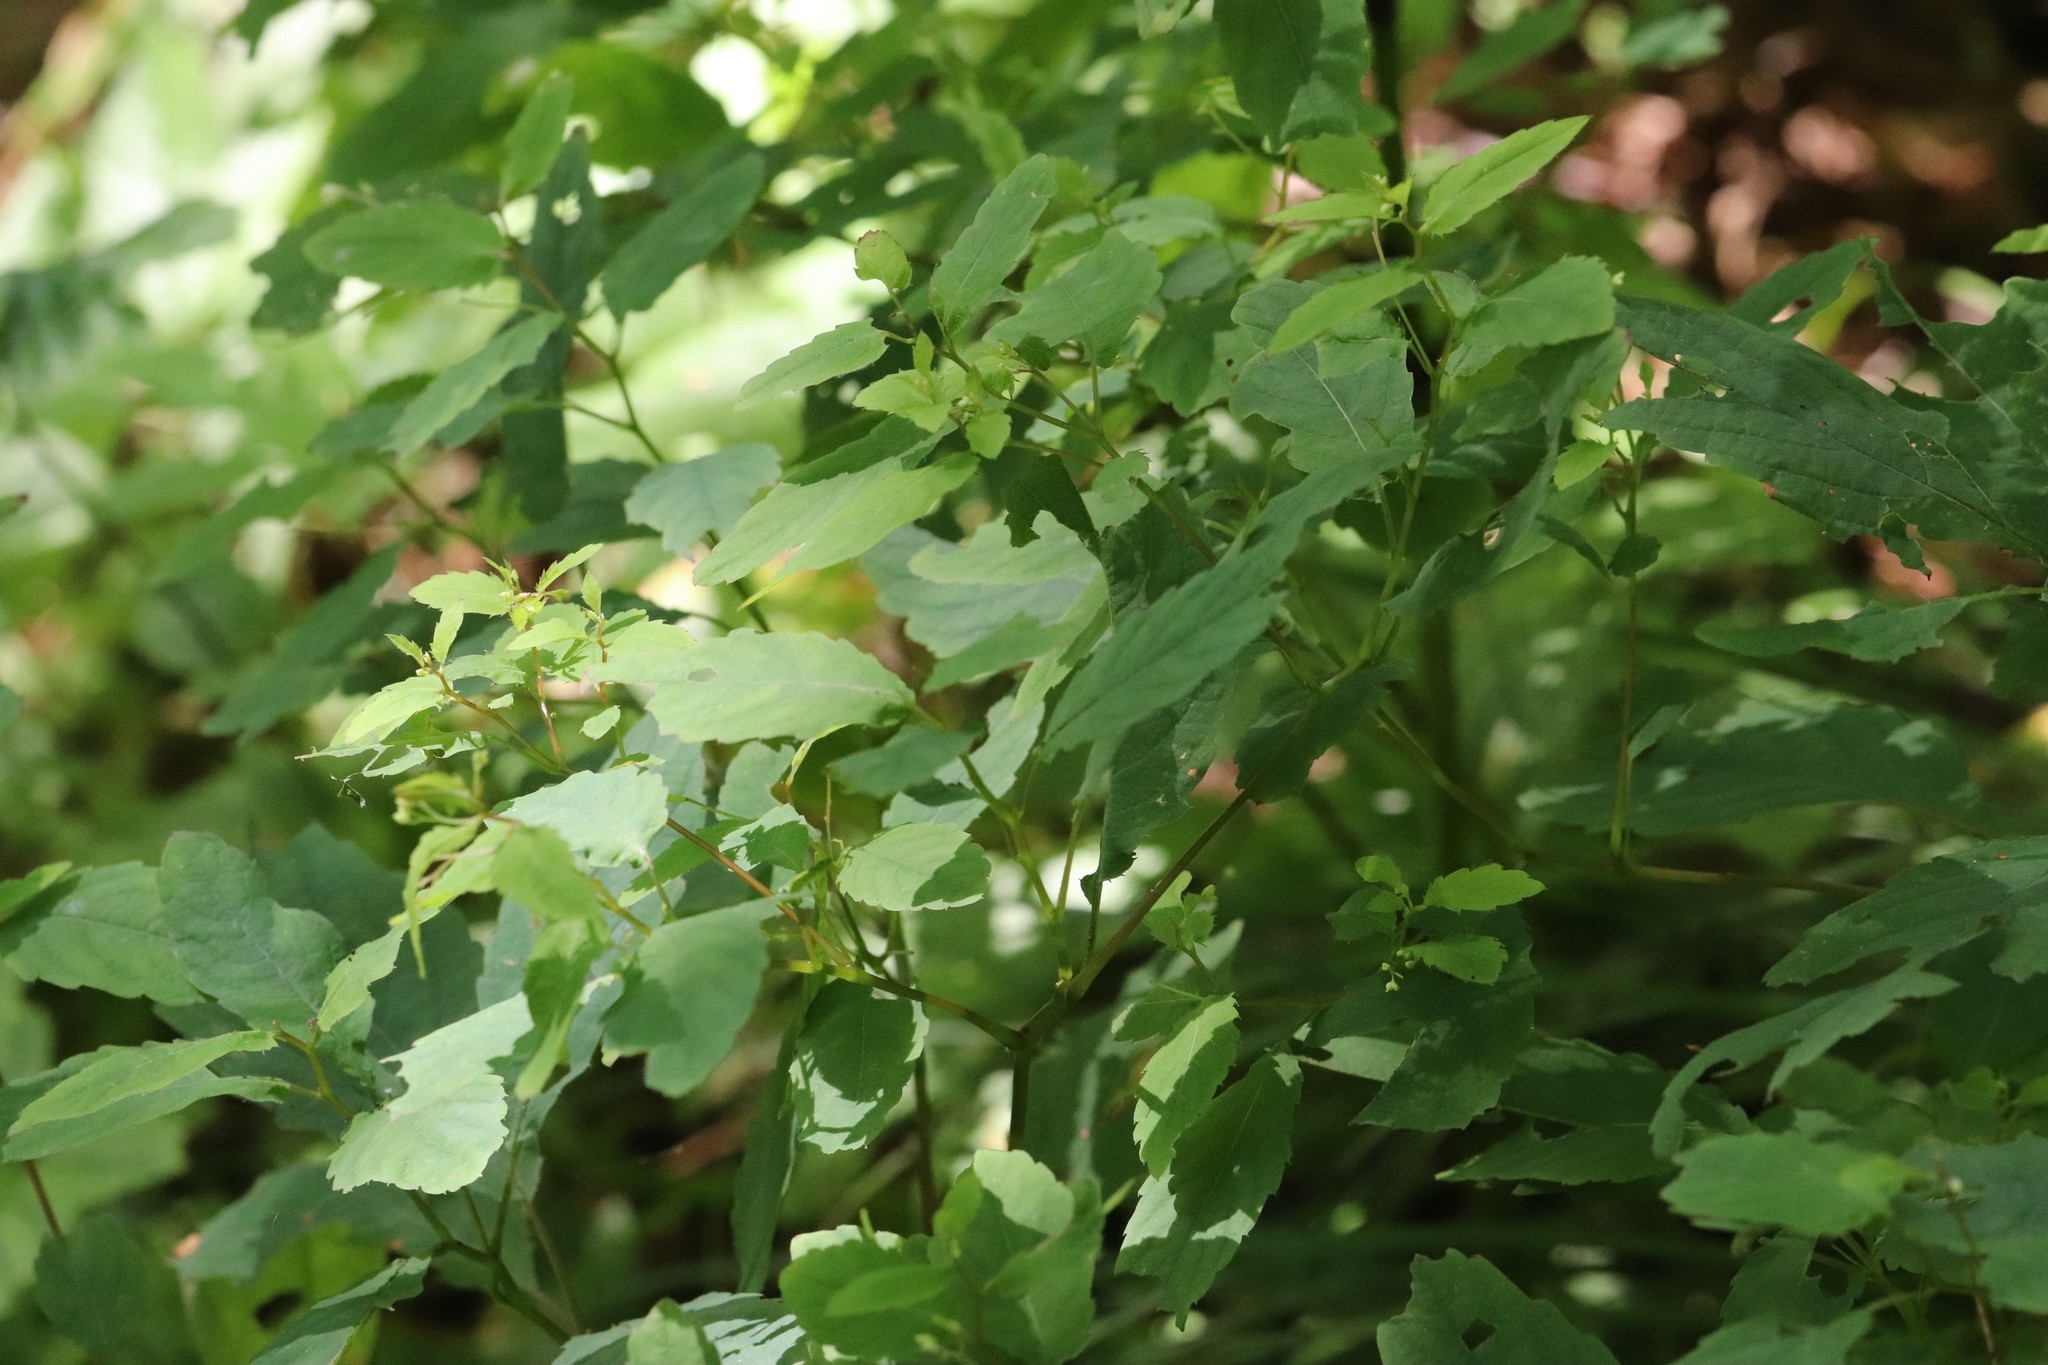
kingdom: Plantae
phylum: Tracheophyta
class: Magnoliopsida
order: Ericales
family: Balsaminaceae
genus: Impatiens
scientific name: Impatiens noli-tangere
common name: Touch-me-not balsam
